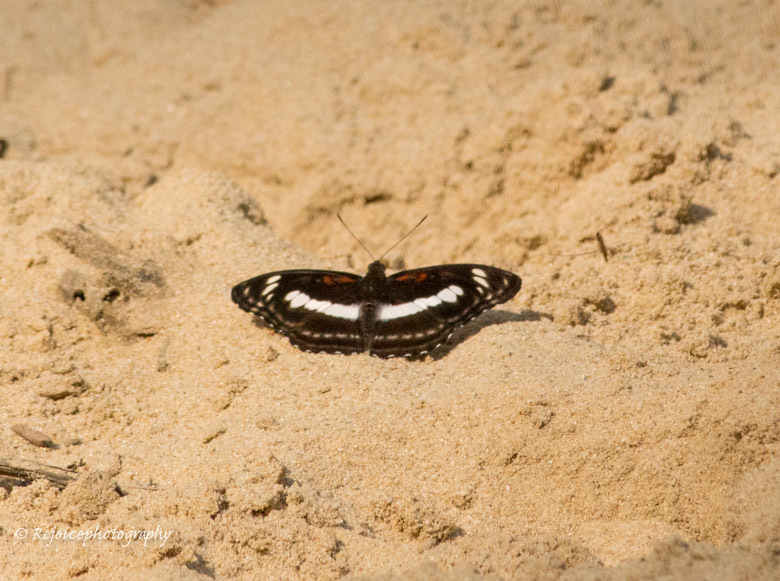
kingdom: Animalia
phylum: Arthropoda
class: Insecta
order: Lepidoptera
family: Nymphalidae
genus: Parathyma
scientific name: Parathyma selenophora
